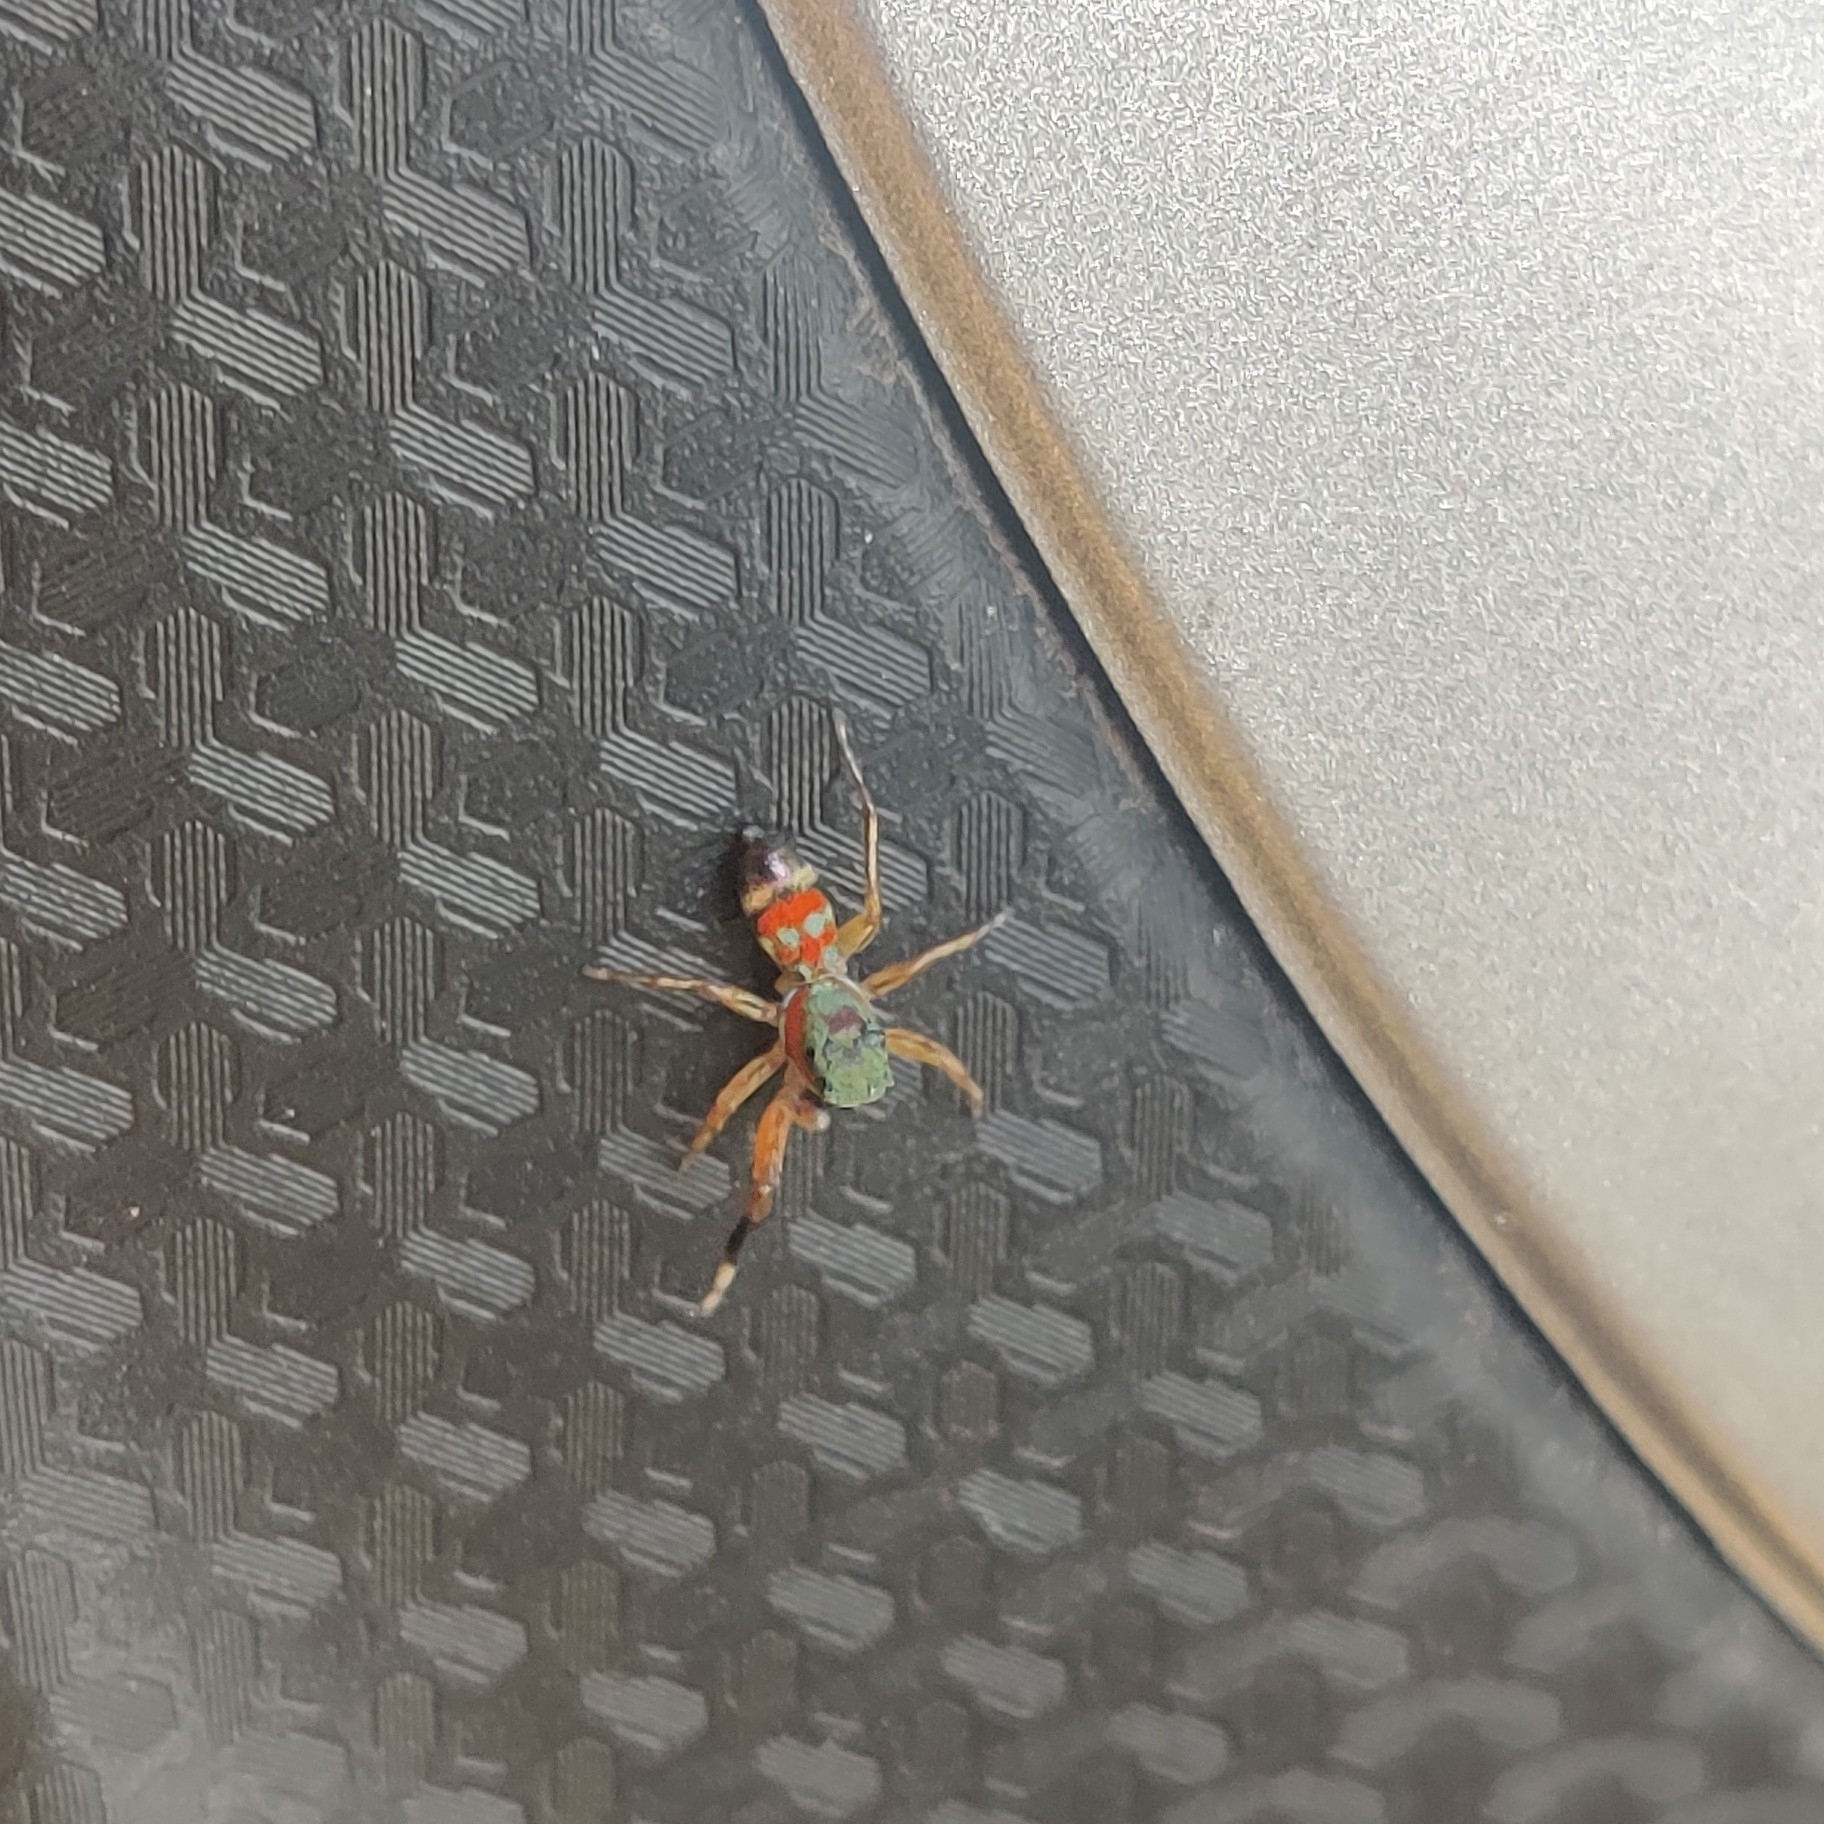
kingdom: Animalia
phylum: Arthropoda
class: Arachnida
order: Araneae
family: Salticidae
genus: Siler
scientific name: Siler semiglaucus
